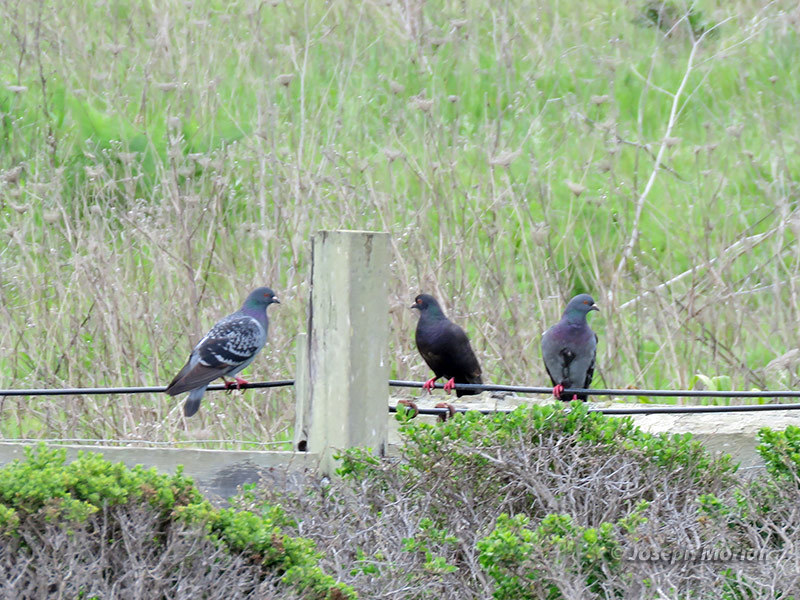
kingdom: Animalia
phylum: Chordata
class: Aves
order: Columbiformes
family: Columbidae
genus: Columba
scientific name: Columba livia
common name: Rock pigeon
